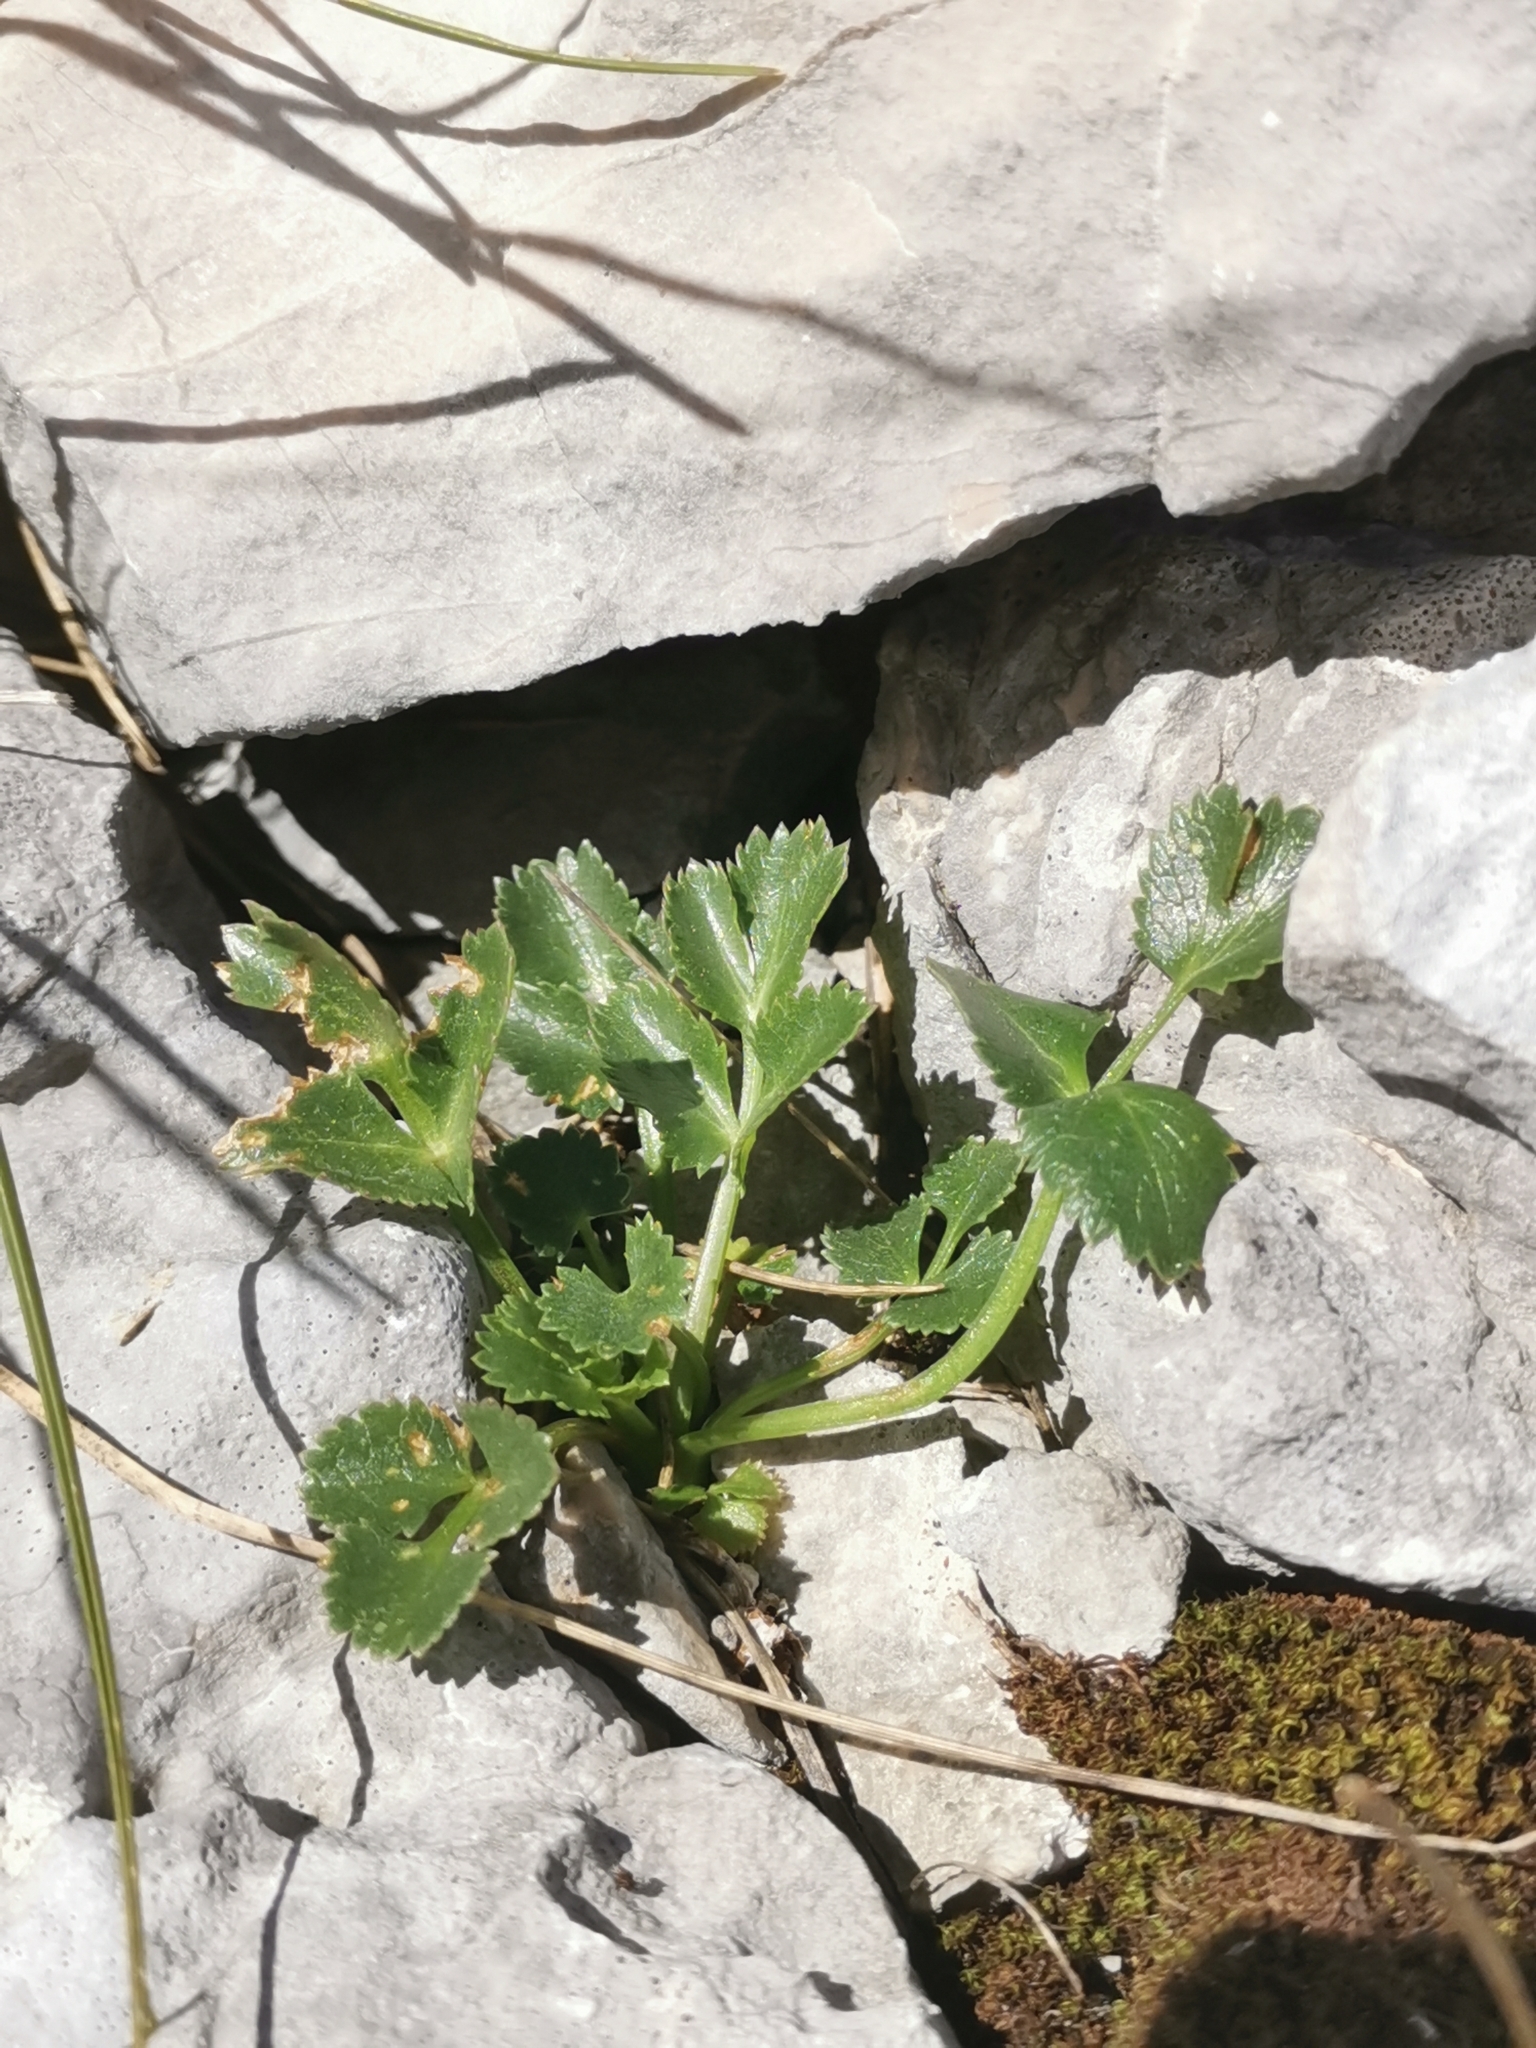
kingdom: Plantae
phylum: Tracheophyta
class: Magnoliopsida
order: Apiales
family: Apiaceae
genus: Hladnikia
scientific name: Hladnikia pastinacifolia
